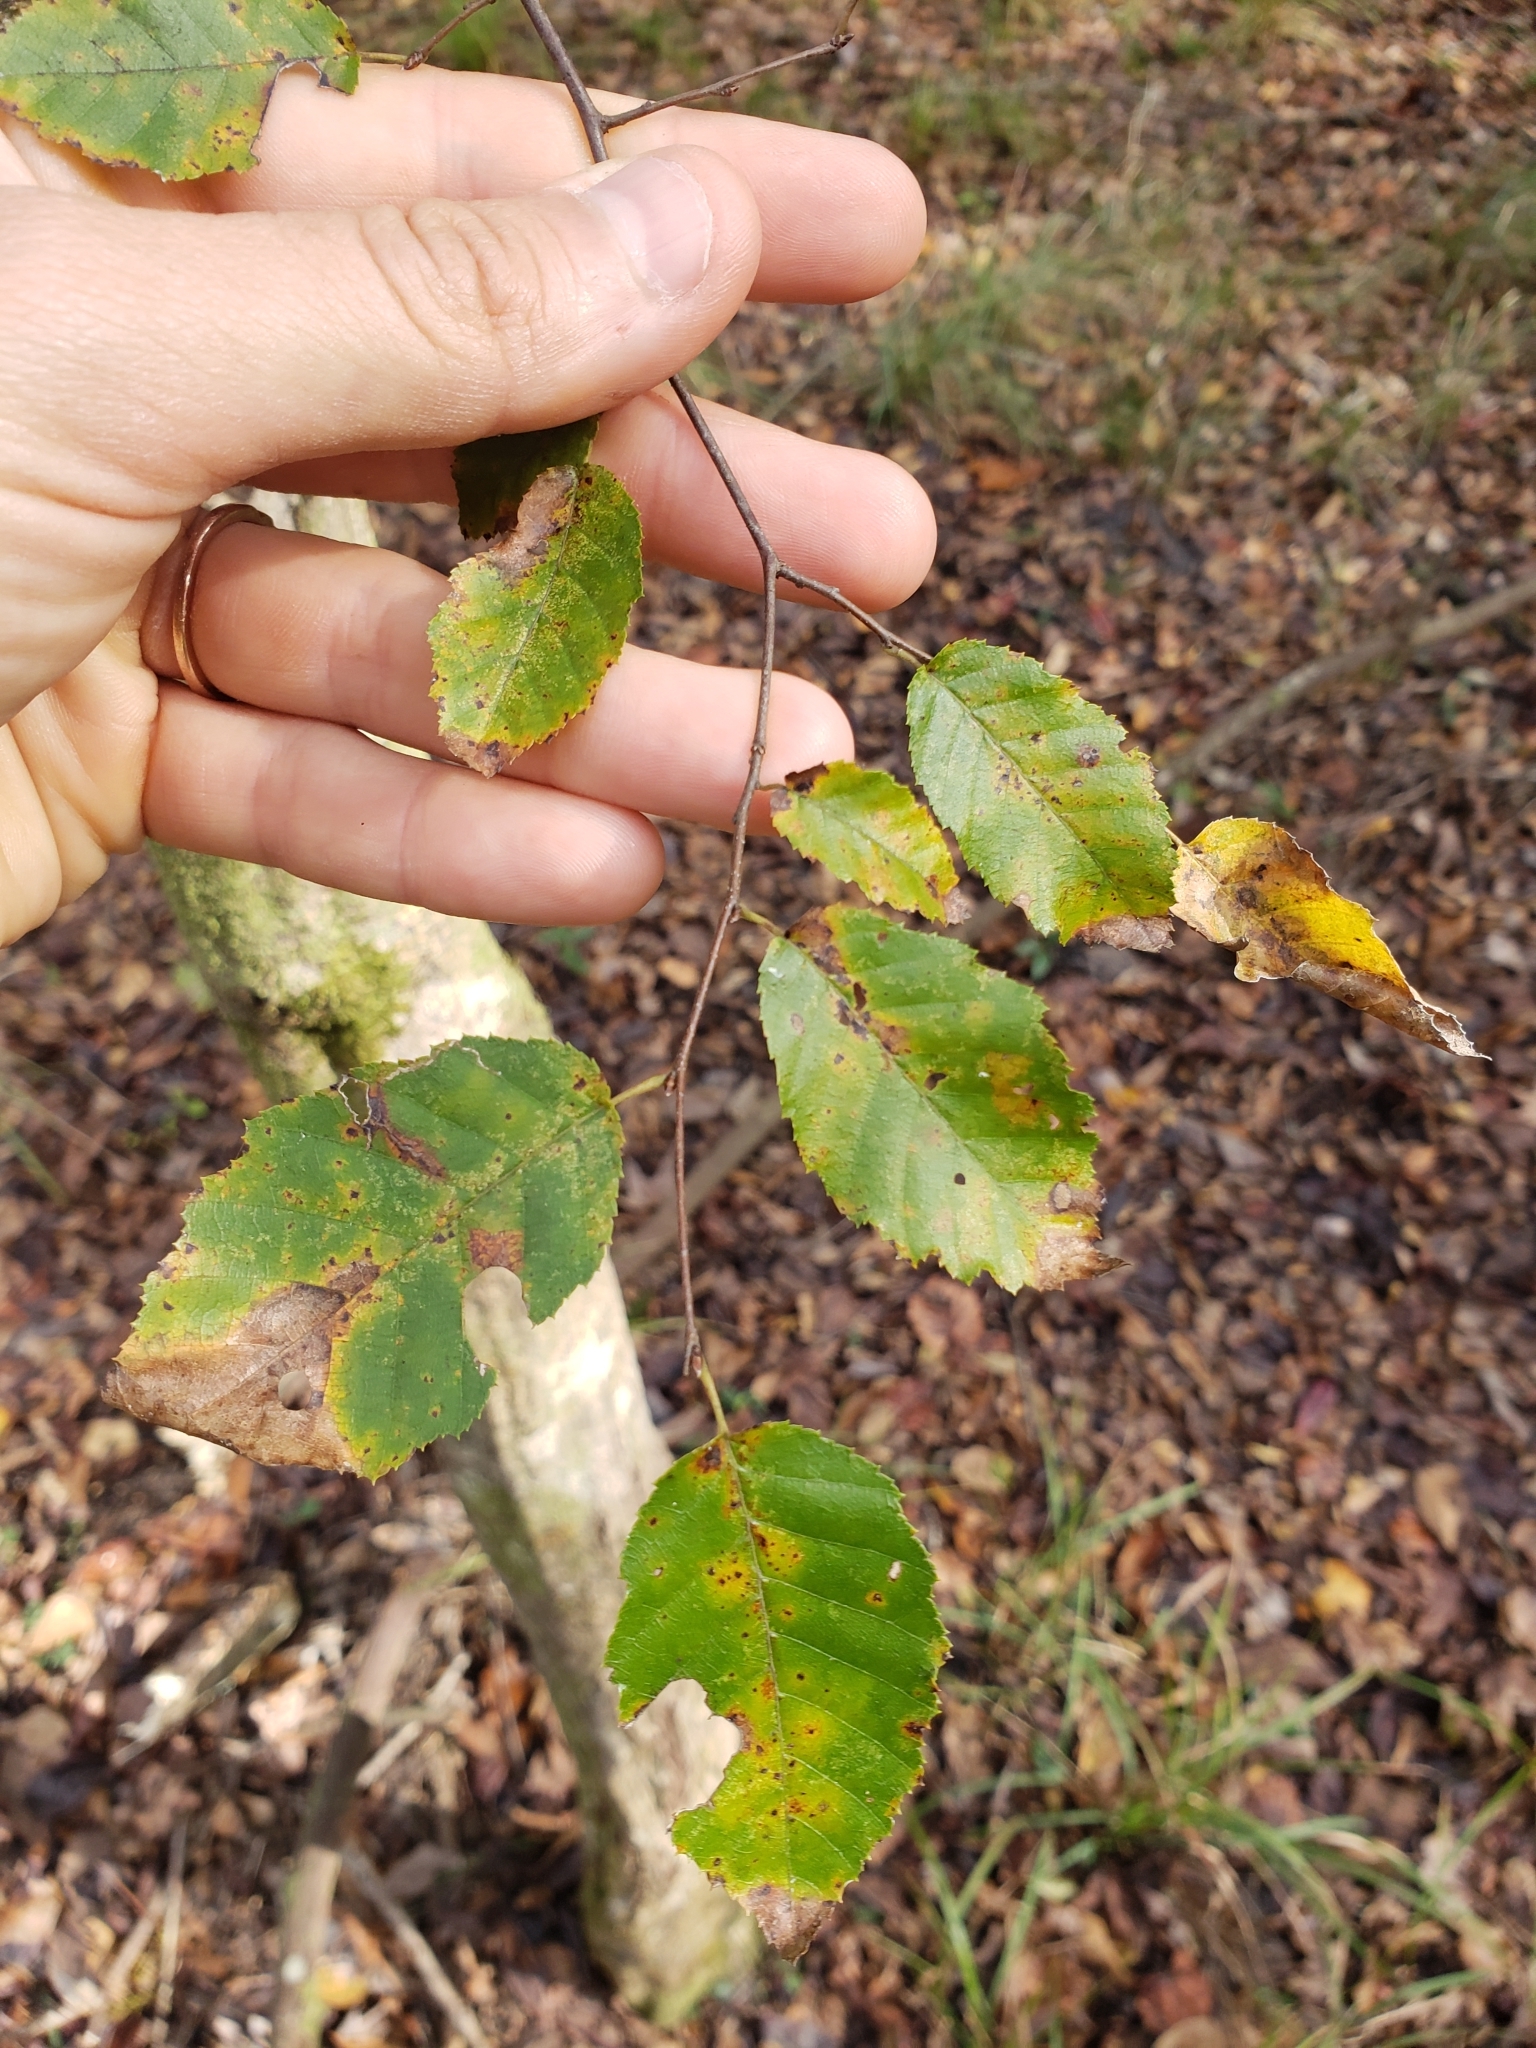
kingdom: Plantae
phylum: Tracheophyta
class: Magnoliopsida
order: Rosales
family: Ulmaceae
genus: Planera
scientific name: Planera aquatica
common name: Water-elm
